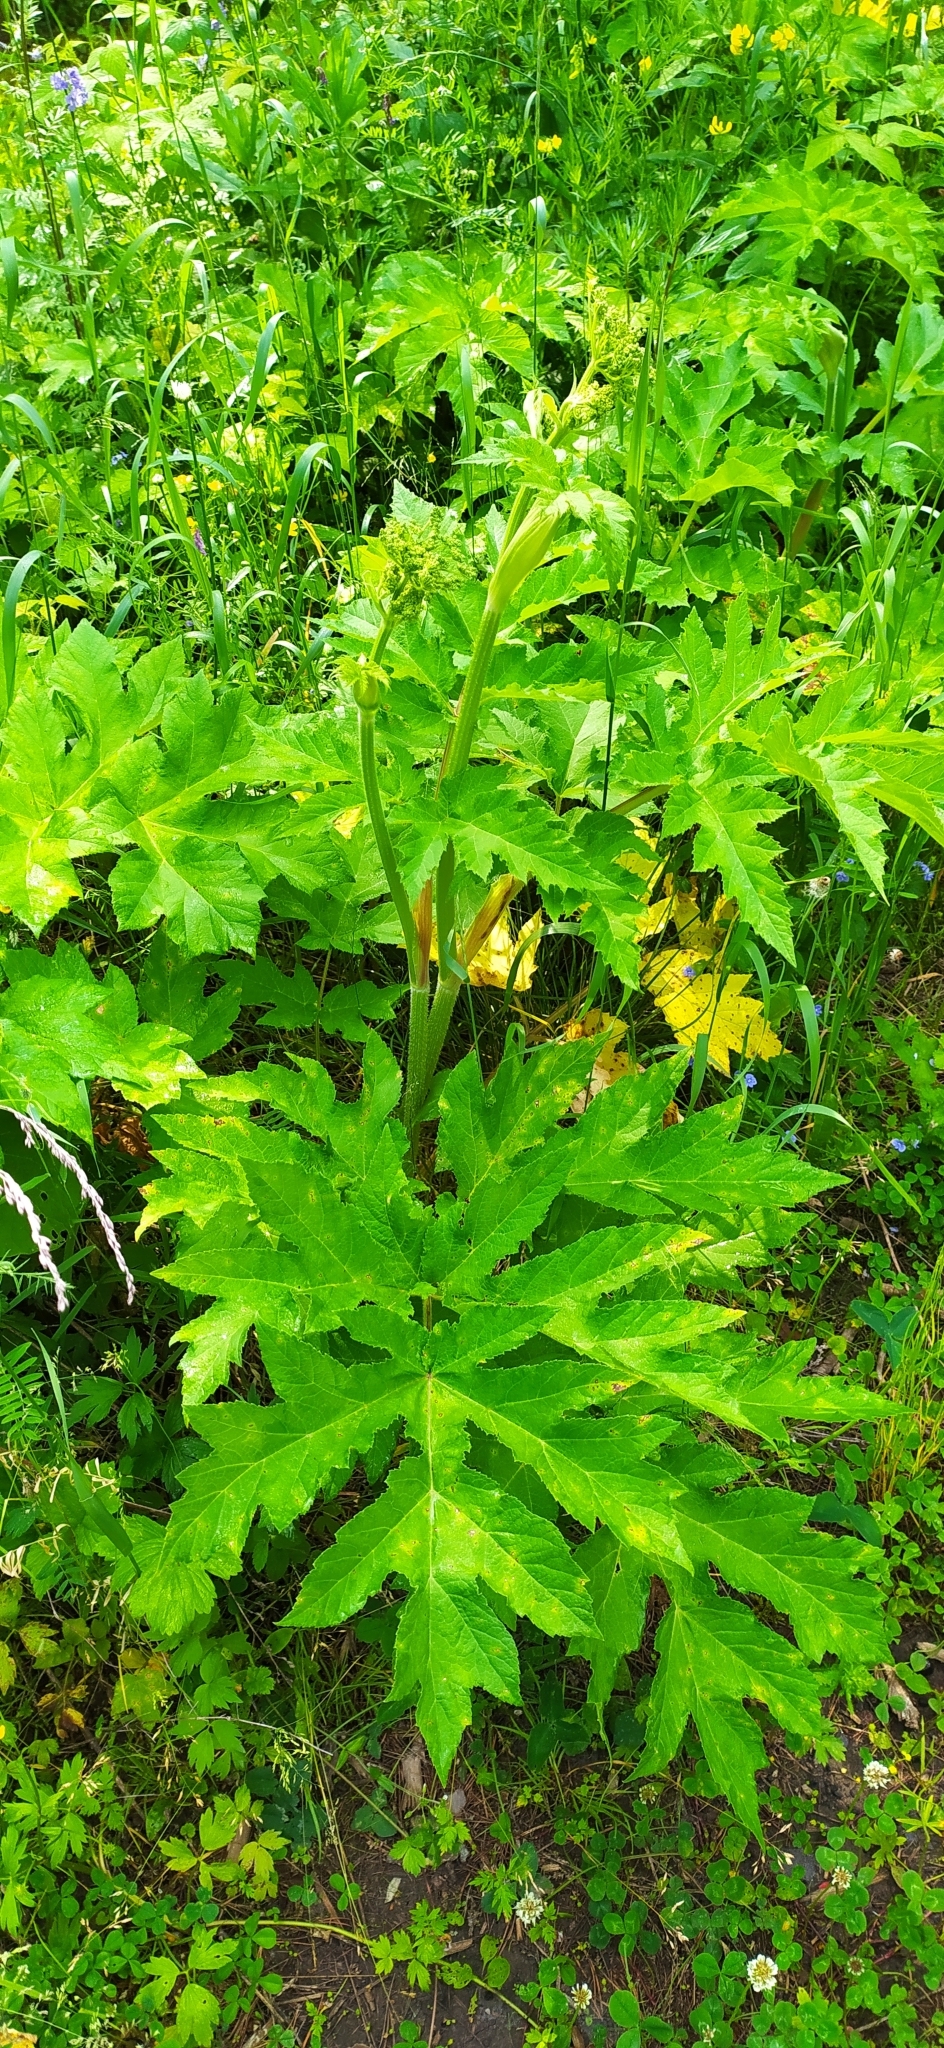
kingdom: Plantae
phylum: Tracheophyta
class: Magnoliopsida
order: Apiales
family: Apiaceae
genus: Heracleum
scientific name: Heracleum sphondylium
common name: Hogweed
